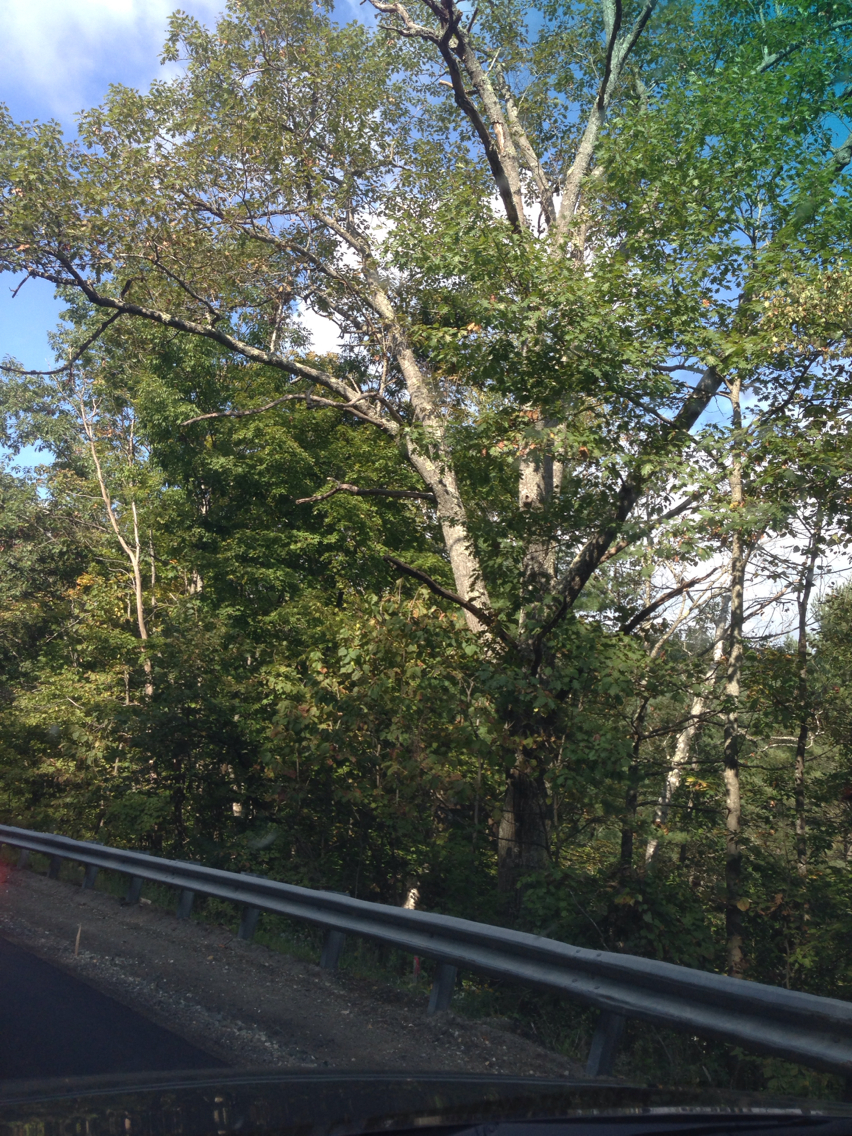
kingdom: Plantae
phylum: Tracheophyta
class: Magnoliopsida
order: Fagales
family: Fagaceae
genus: Quercus
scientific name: Quercus rubra
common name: Red oak
